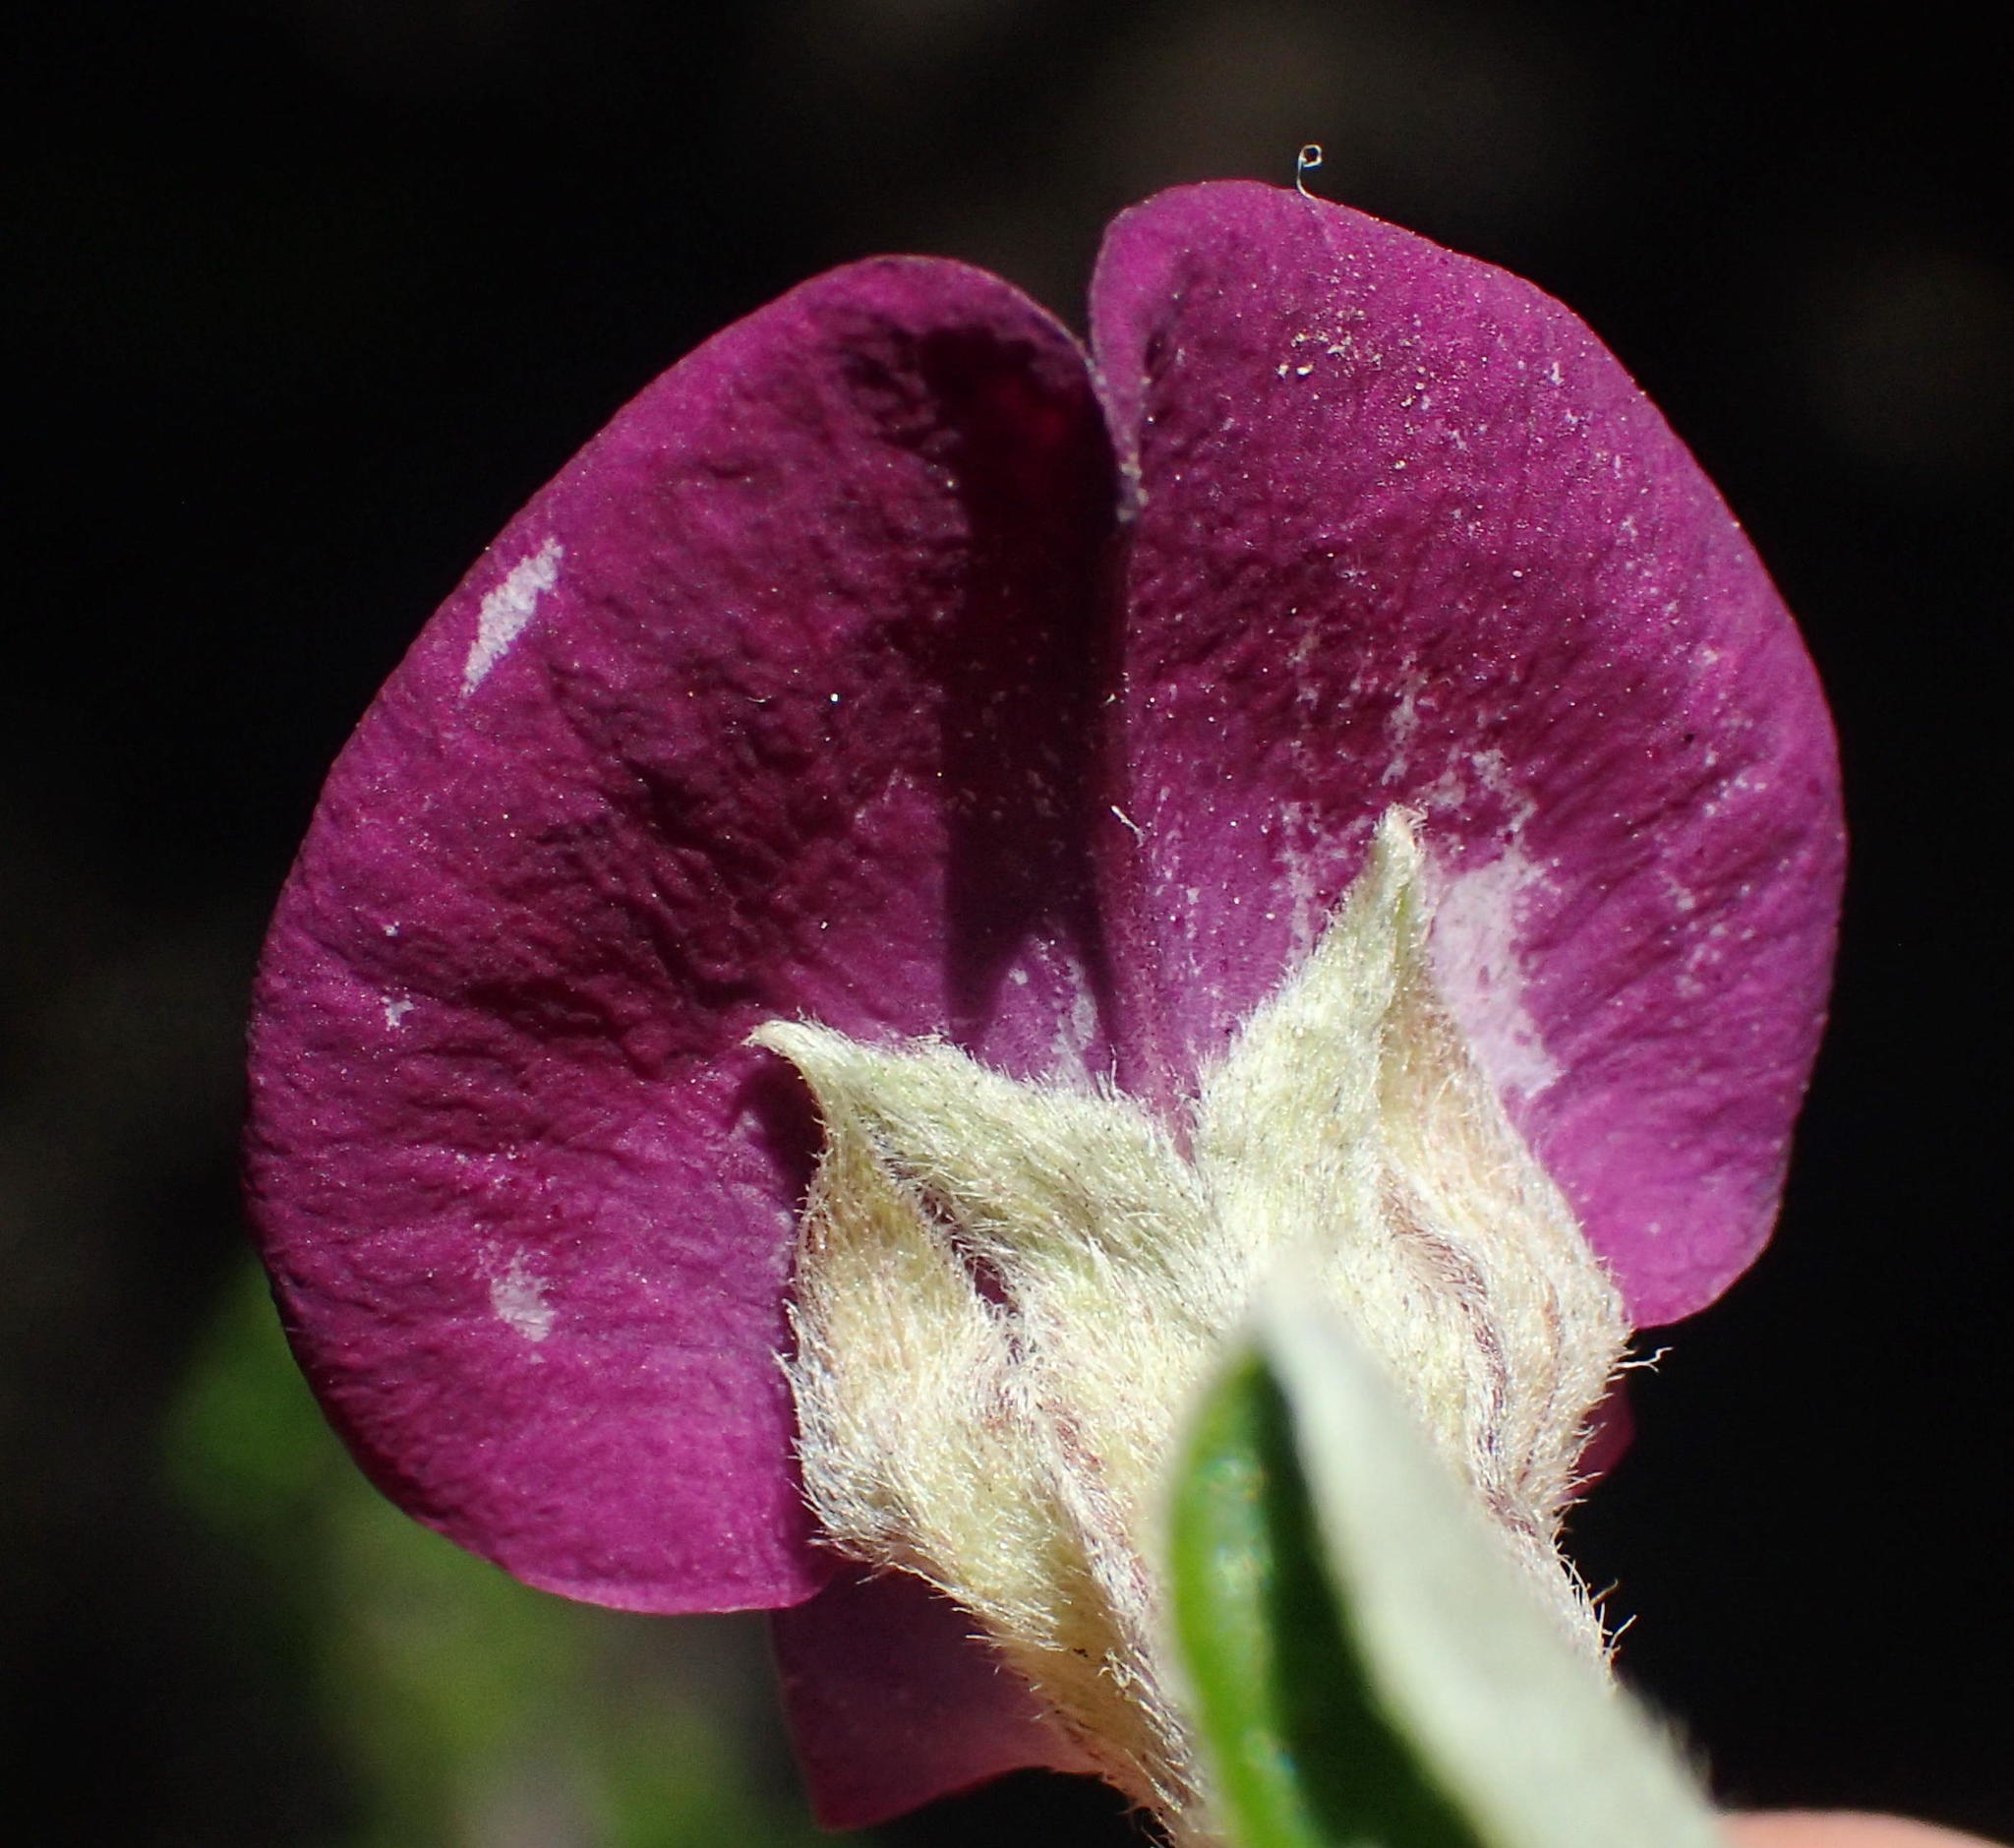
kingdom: Plantae
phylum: Tracheophyta
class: Magnoliopsida
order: Fabales
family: Fabaceae
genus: Podalyria
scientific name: Podalyria buxifolia
